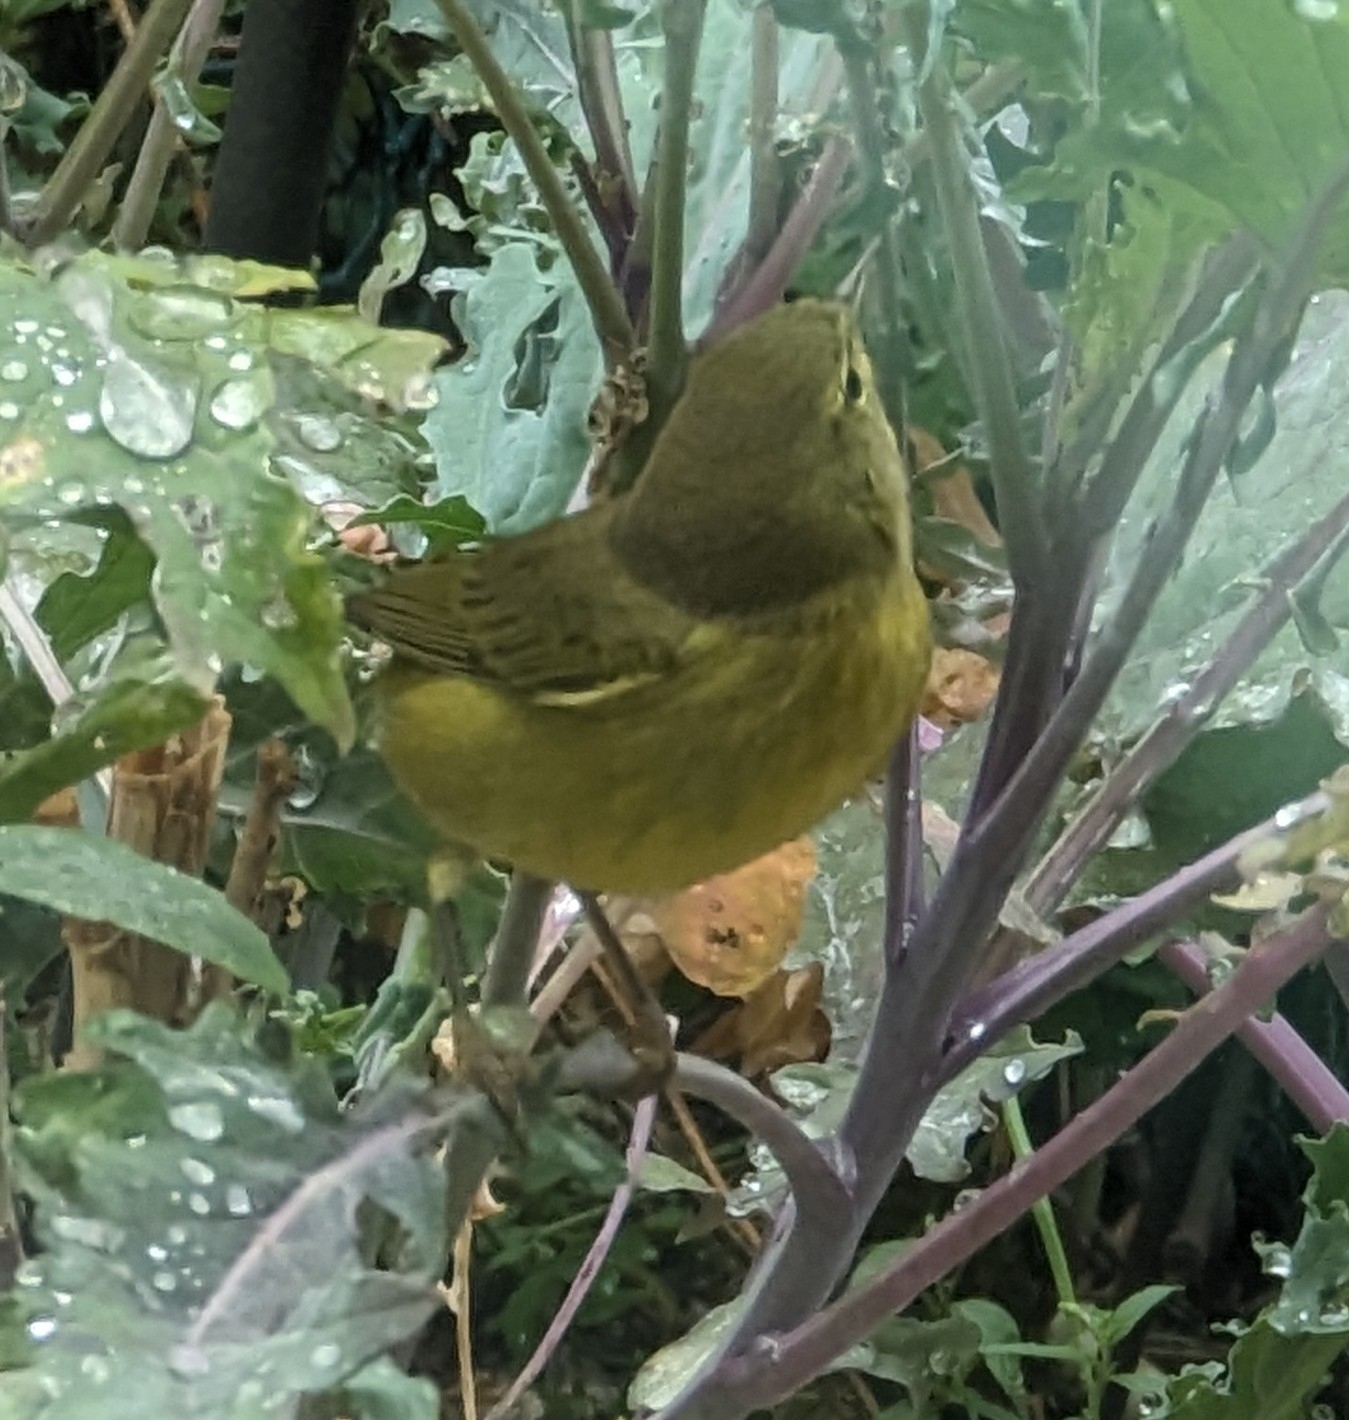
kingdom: Animalia
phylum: Chordata
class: Aves
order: Passeriformes
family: Parulidae
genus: Leiothlypis
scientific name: Leiothlypis celata
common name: Orange-crowned warbler
